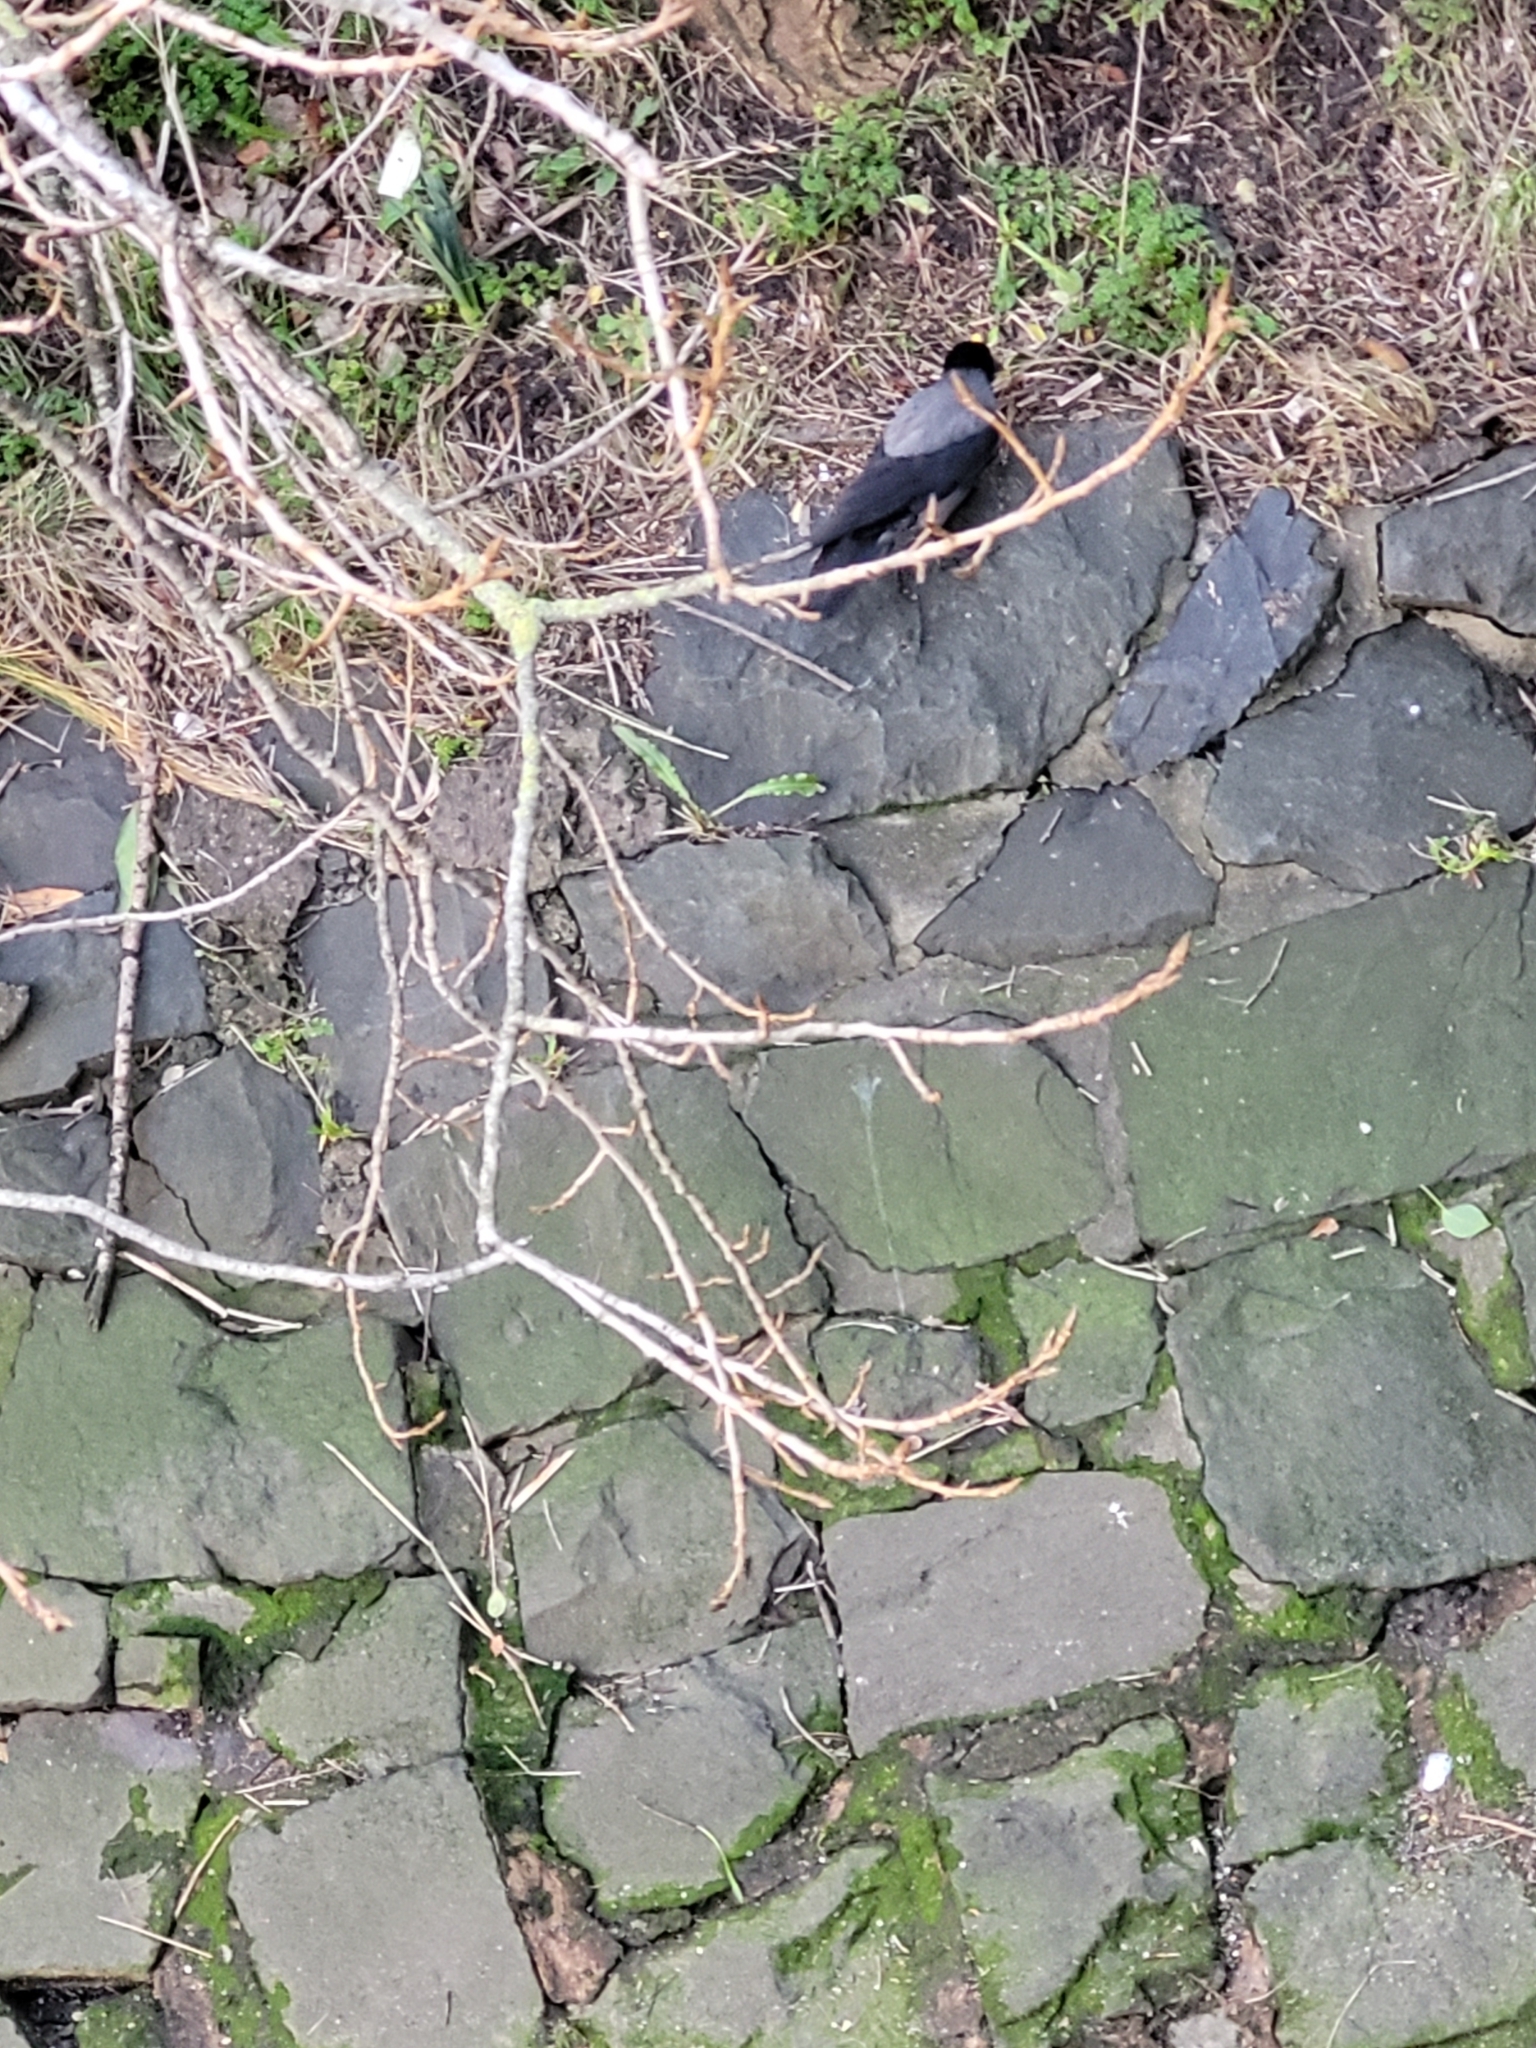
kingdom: Animalia
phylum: Chordata
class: Aves
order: Passeriformes
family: Corvidae
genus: Corvus
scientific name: Corvus cornix
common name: Hooded crow
